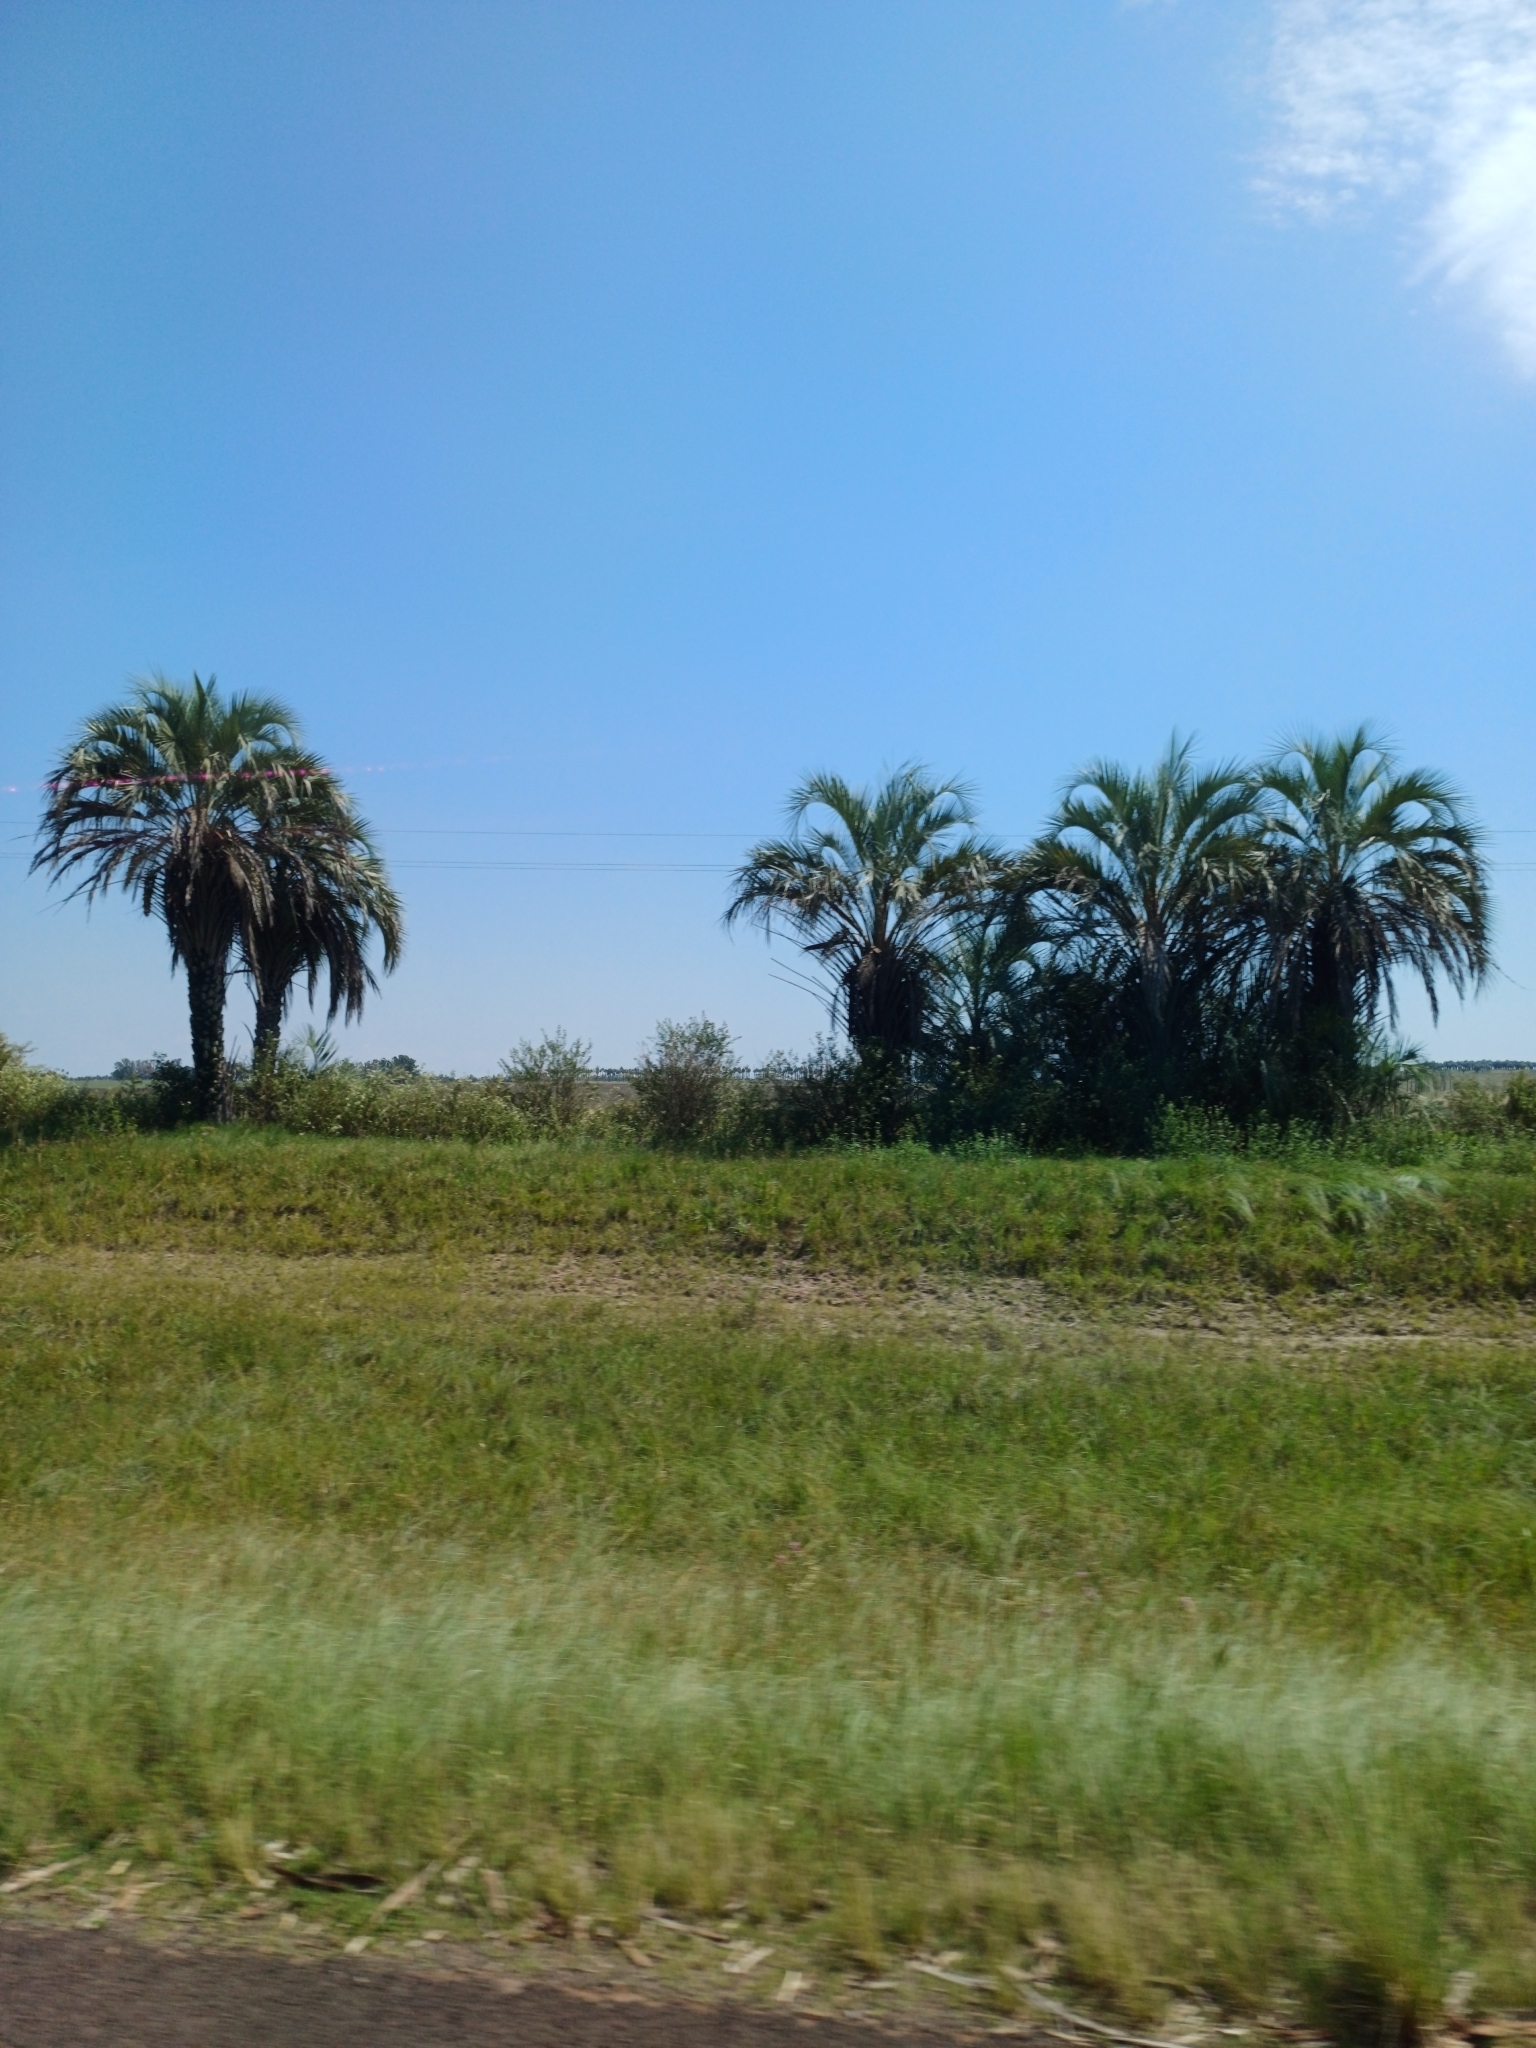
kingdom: Plantae
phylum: Tracheophyta
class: Liliopsida
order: Arecales
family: Arecaceae
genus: Butia
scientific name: Butia yatay
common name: Yatay palm
